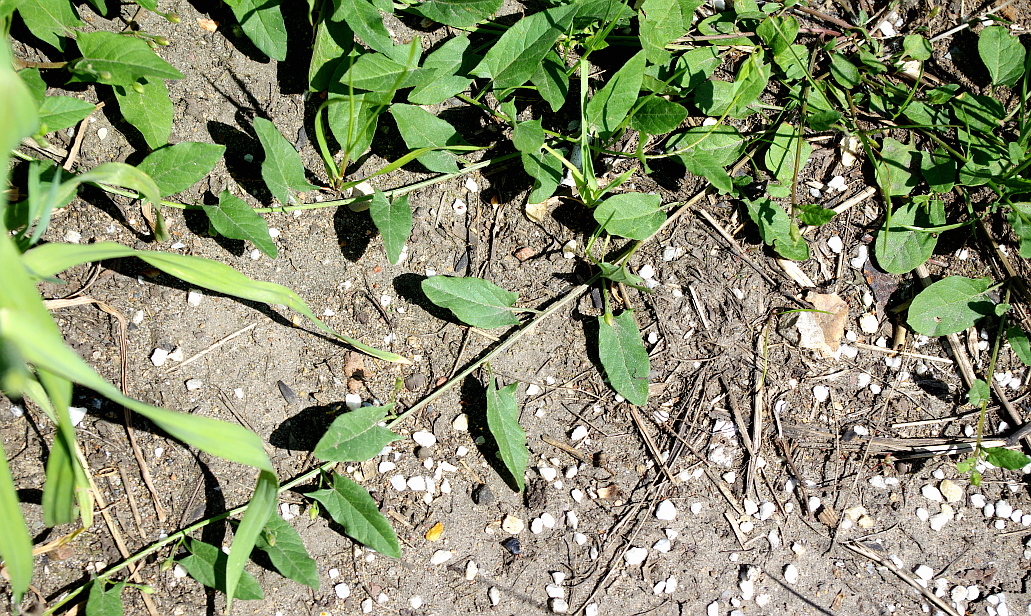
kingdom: Plantae
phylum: Tracheophyta
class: Magnoliopsida
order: Solanales
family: Convolvulaceae
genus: Convolvulus
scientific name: Convolvulus arvensis
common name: Field bindweed
